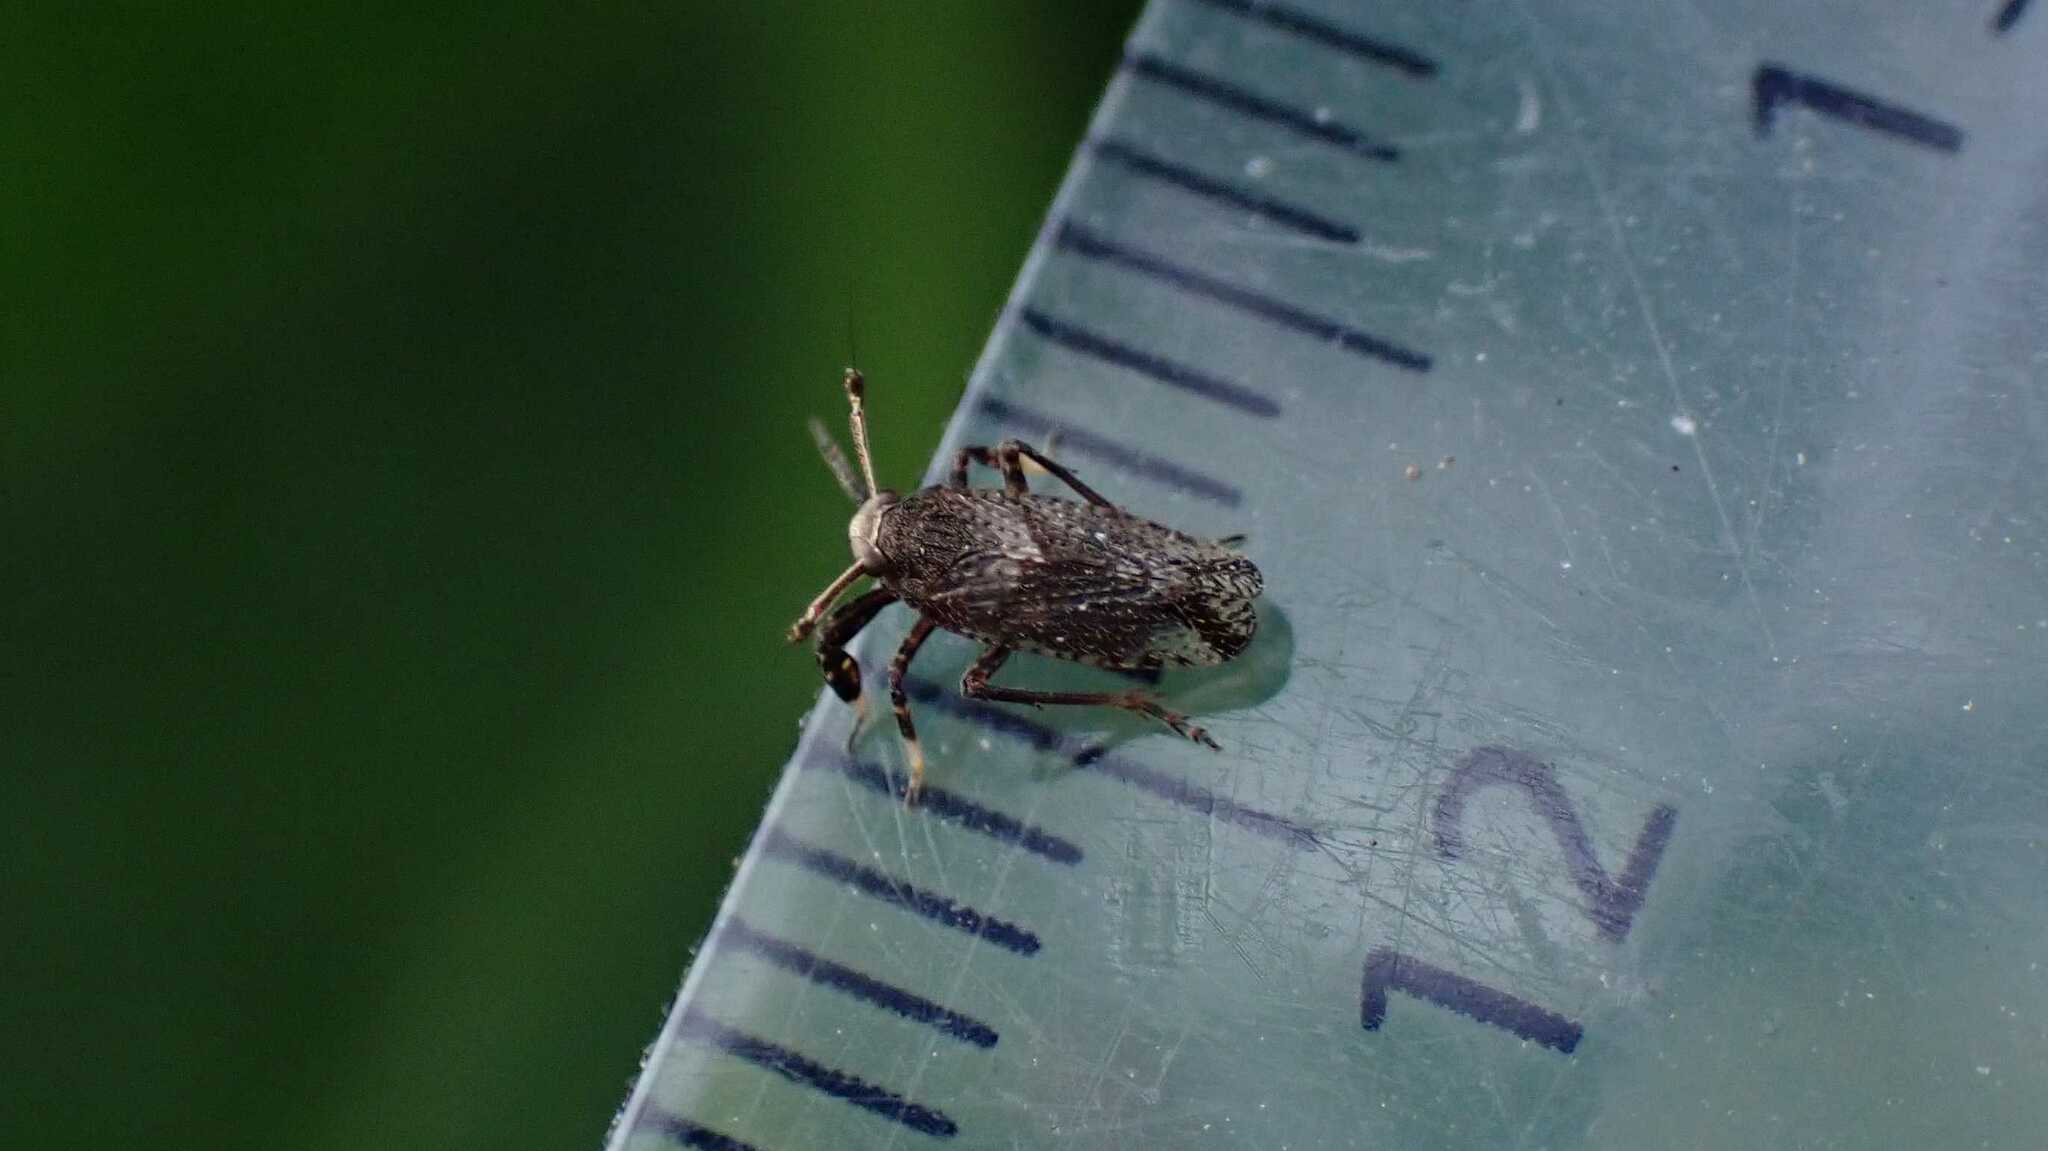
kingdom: Animalia
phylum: Arthropoda
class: Insecta
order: Hemiptera
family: Delphacidae
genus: Asiraca
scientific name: Asiraca clavicornis
